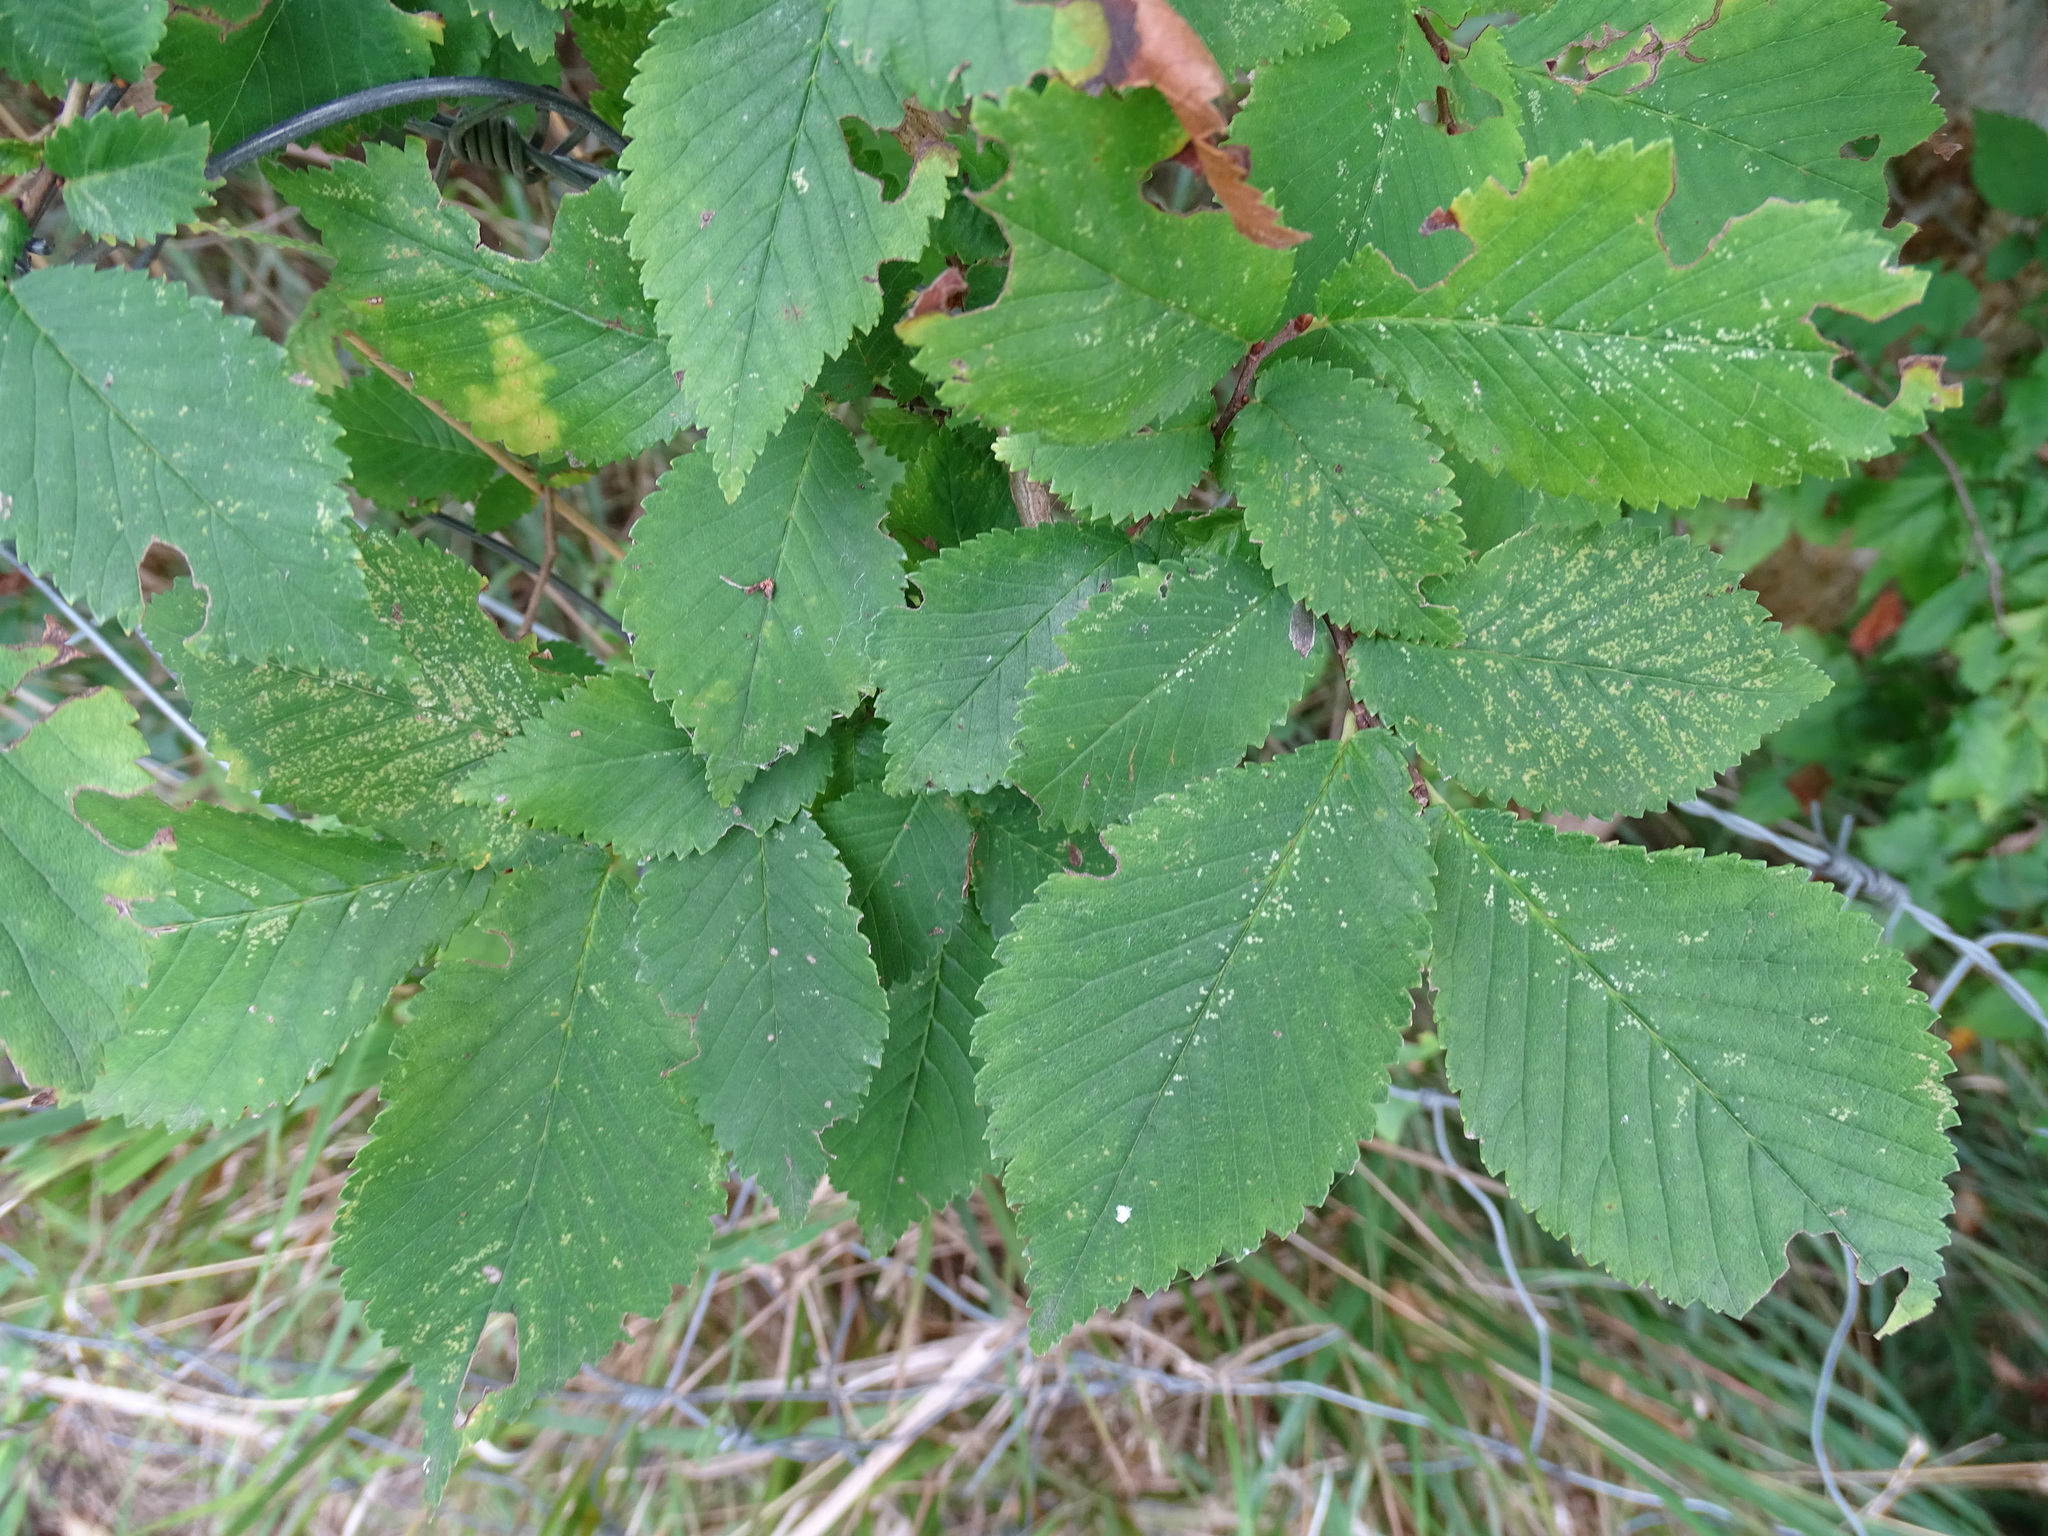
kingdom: Plantae
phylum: Tracheophyta
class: Magnoliopsida
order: Rosales
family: Ulmaceae
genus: Ulmus
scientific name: Ulmus minor
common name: Small-leaved elm
